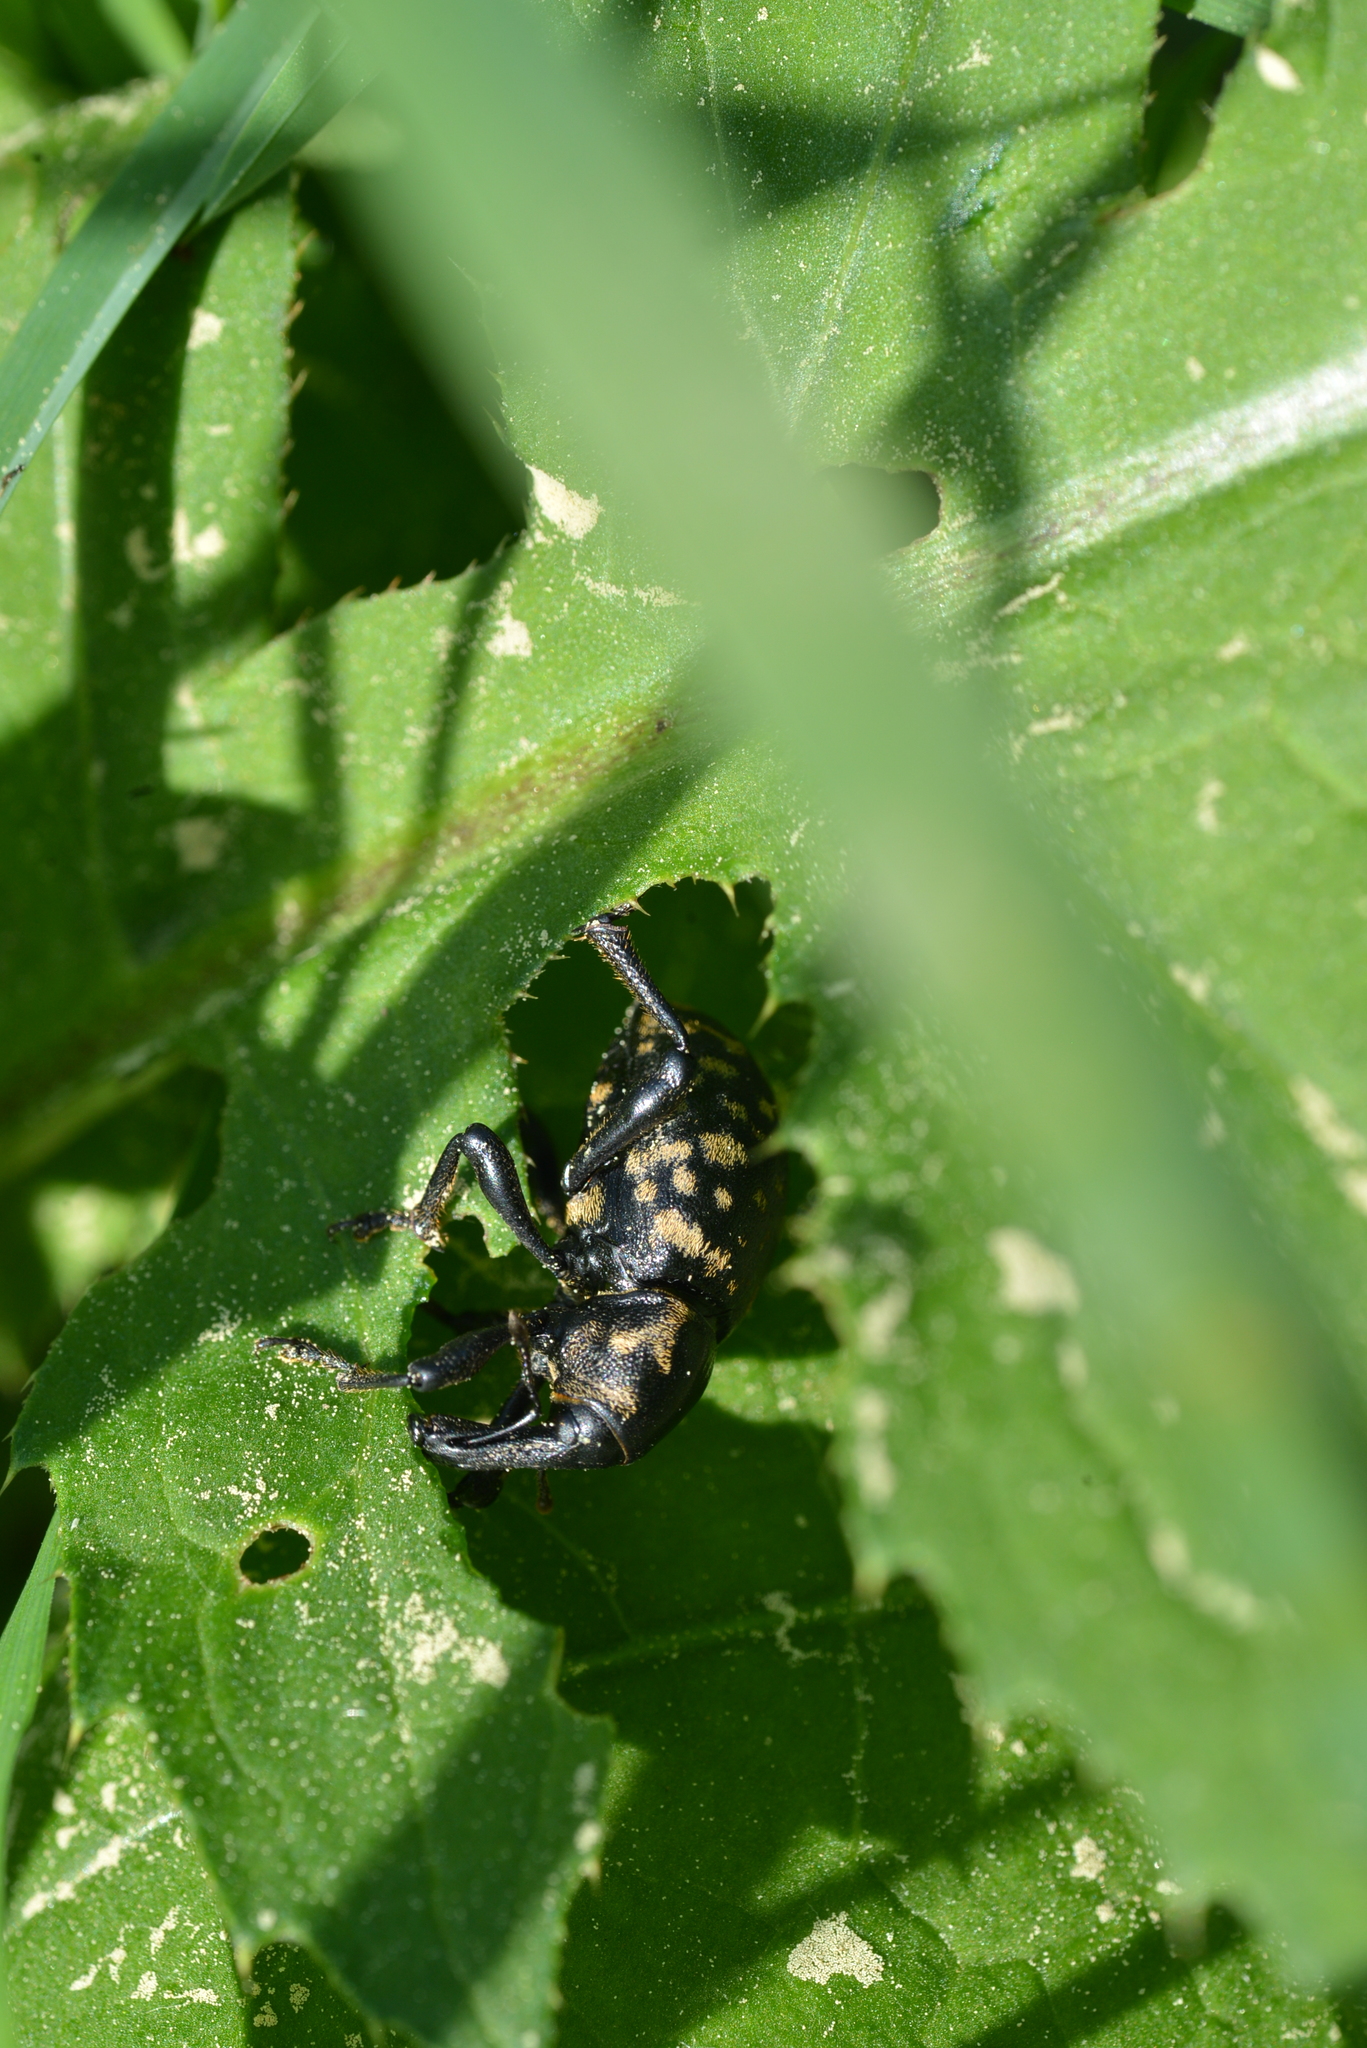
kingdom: Animalia
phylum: Arthropoda
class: Insecta
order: Coleoptera
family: Curculionidae
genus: Liparus
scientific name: Liparus glabrirostris
